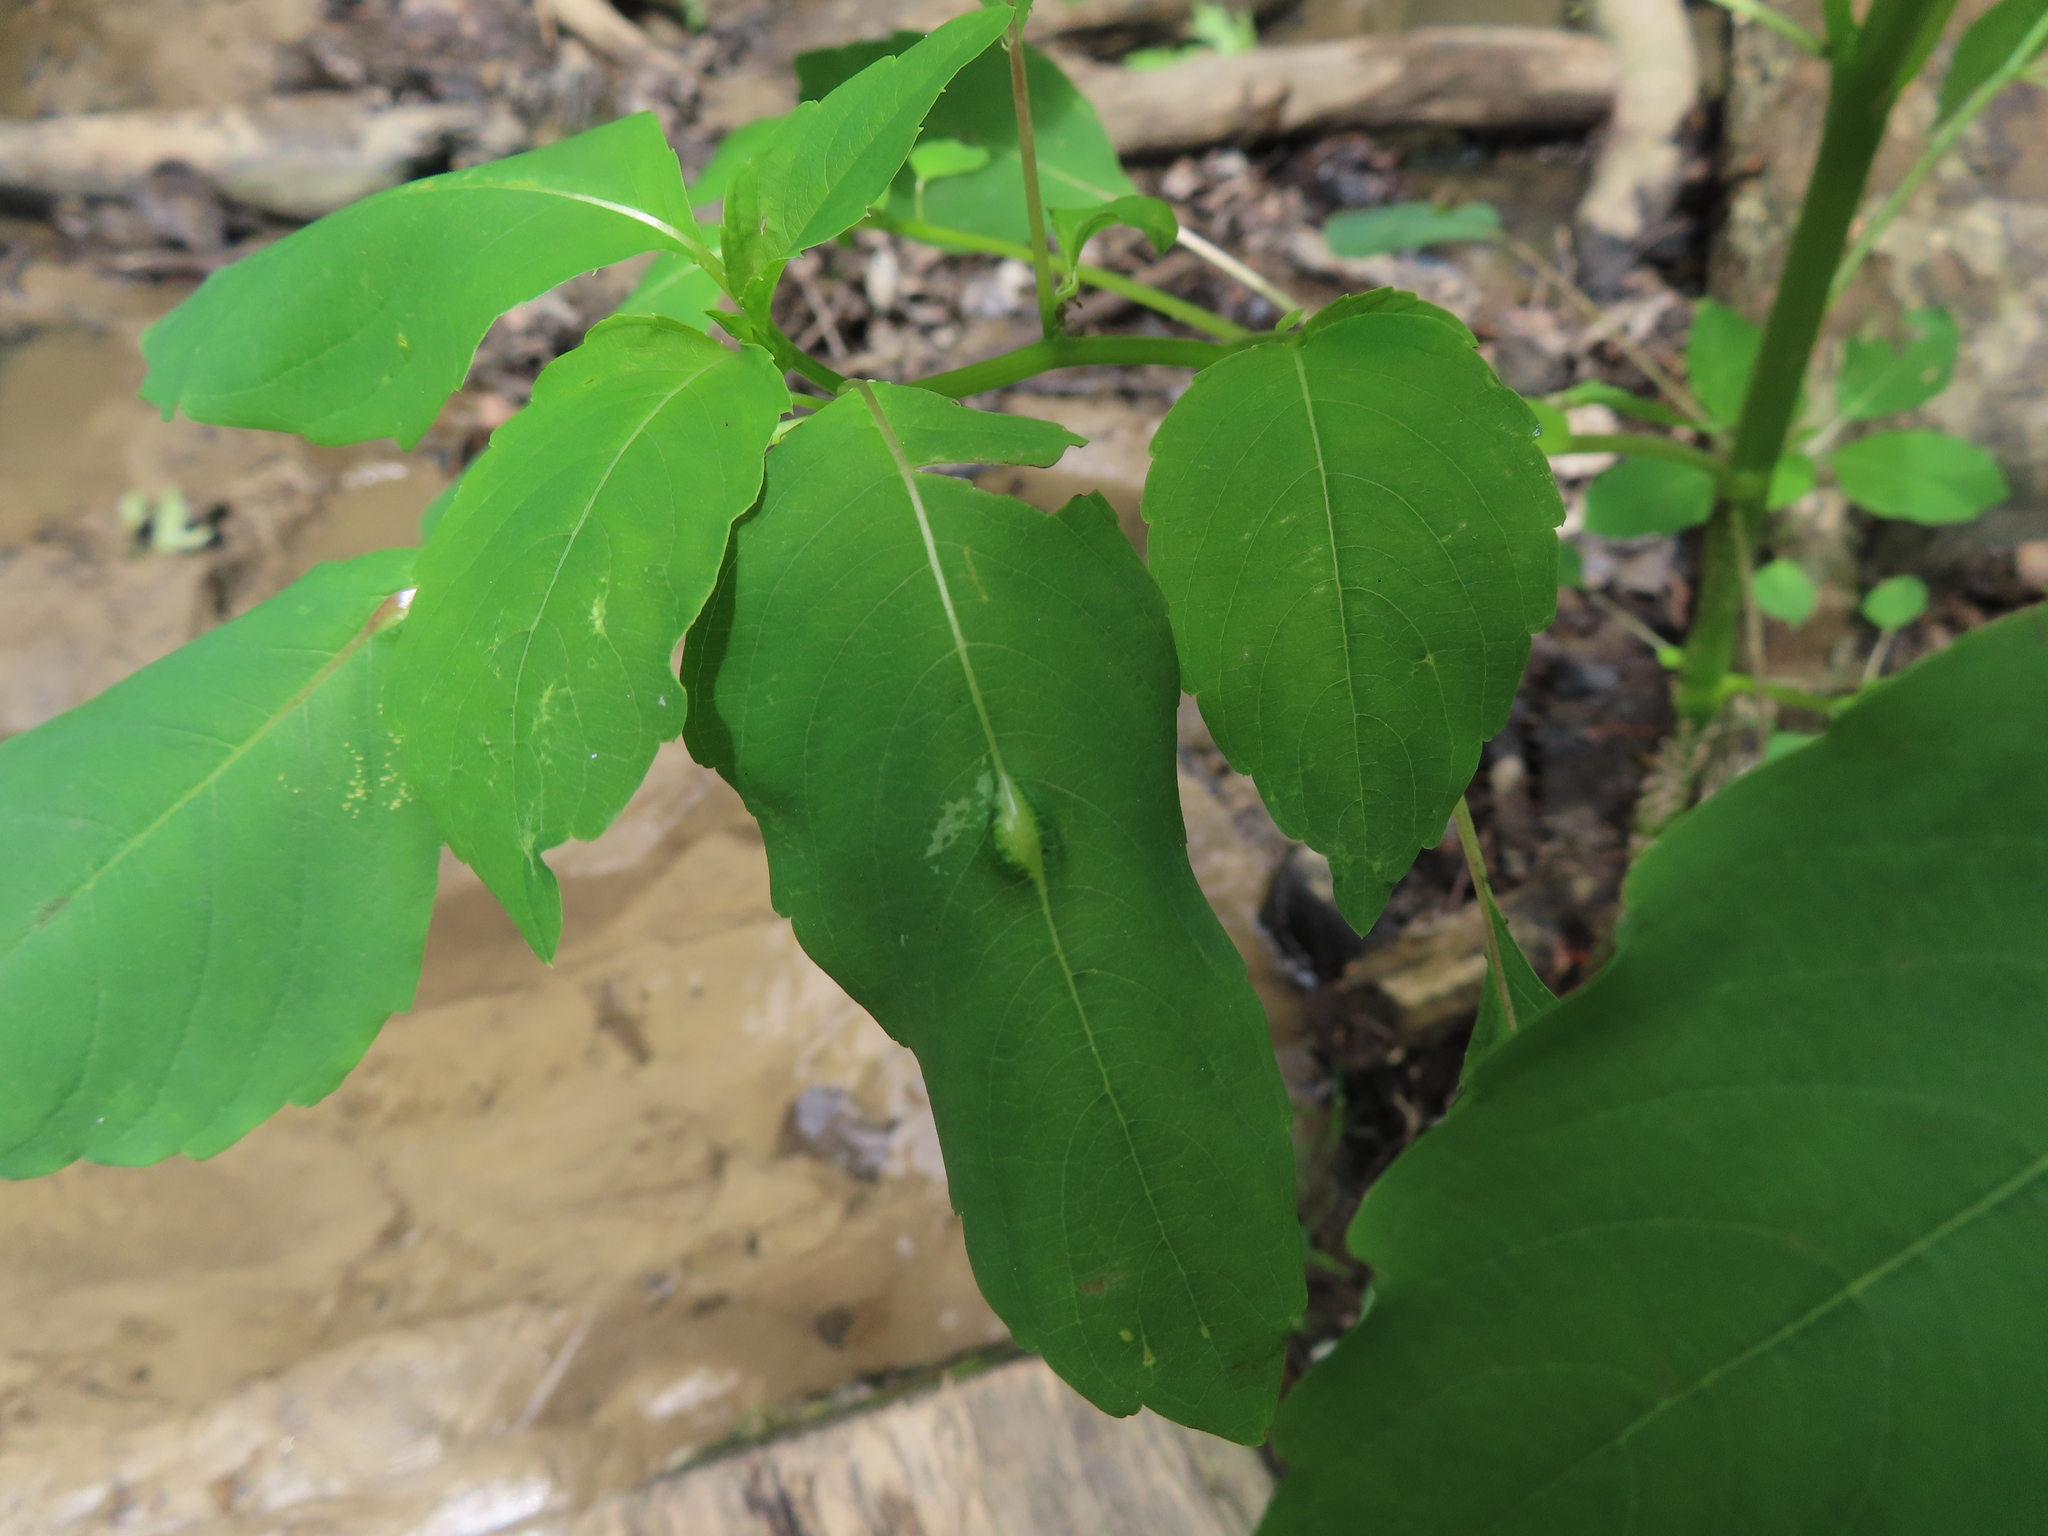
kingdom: Animalia
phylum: Arthropoda
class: Insecta
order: Diptera
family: Cecidomyiidae
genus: Neolasioptera
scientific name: Neolasioptera impatientifolia
